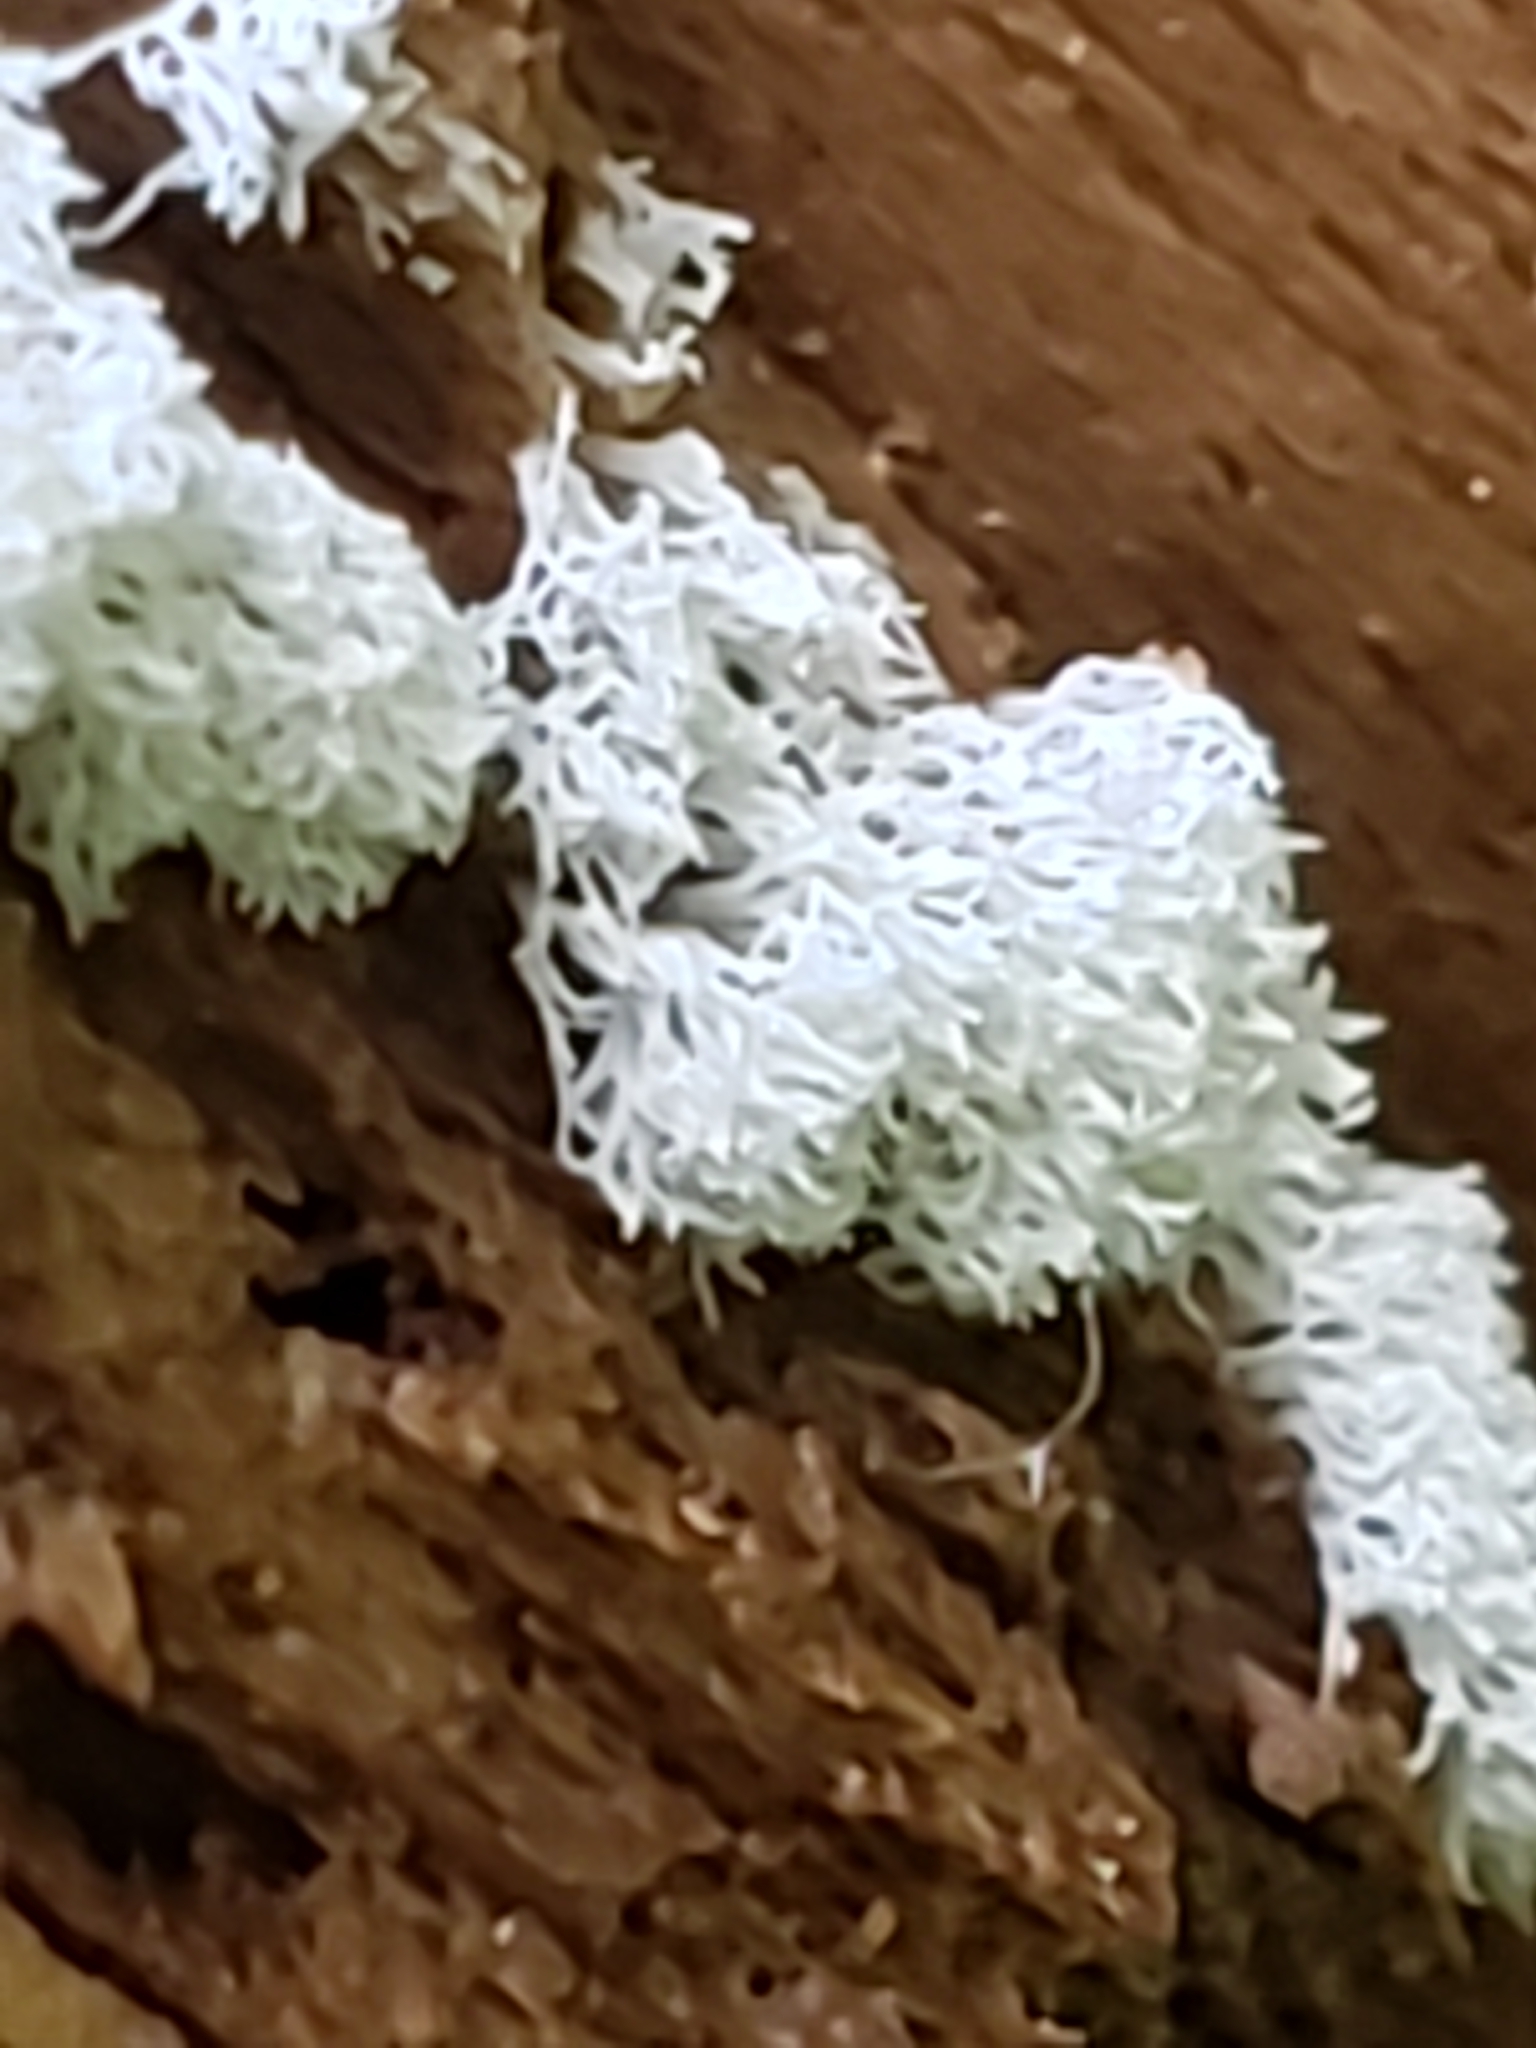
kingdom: Protozoa
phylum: Mycetozoa
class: Protosteliomycetes
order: Ceratiomyxales
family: Ceratiomyxaceae
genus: Ceratiomyxa
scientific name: Ceratiomyxa fruticulosa
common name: Honeycomb coral slime mold
